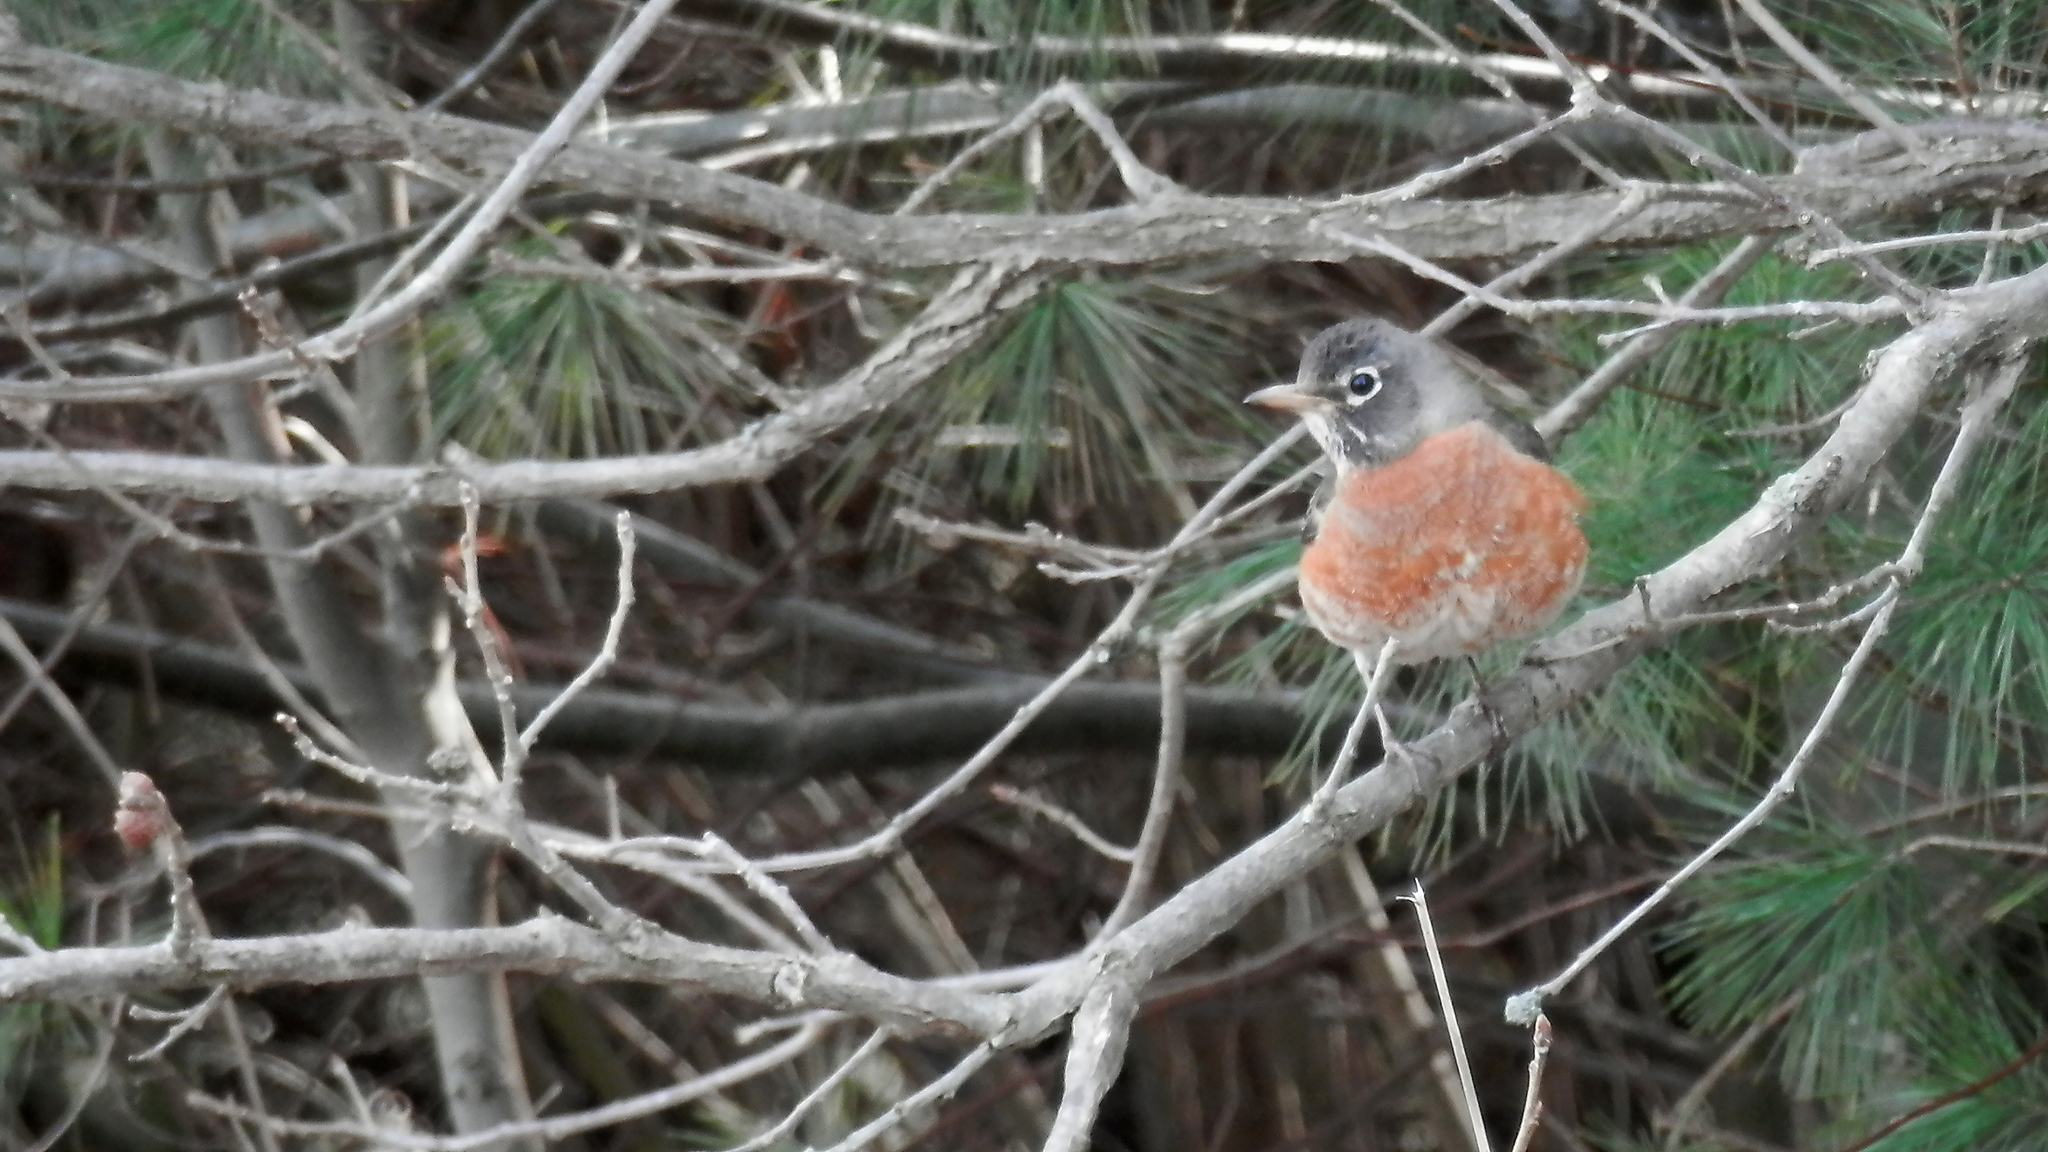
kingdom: Animalia
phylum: Chordata
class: Aves
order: Passeriformes
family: Turdidae
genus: Turdus
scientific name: Turdus migratorius
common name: American robin
